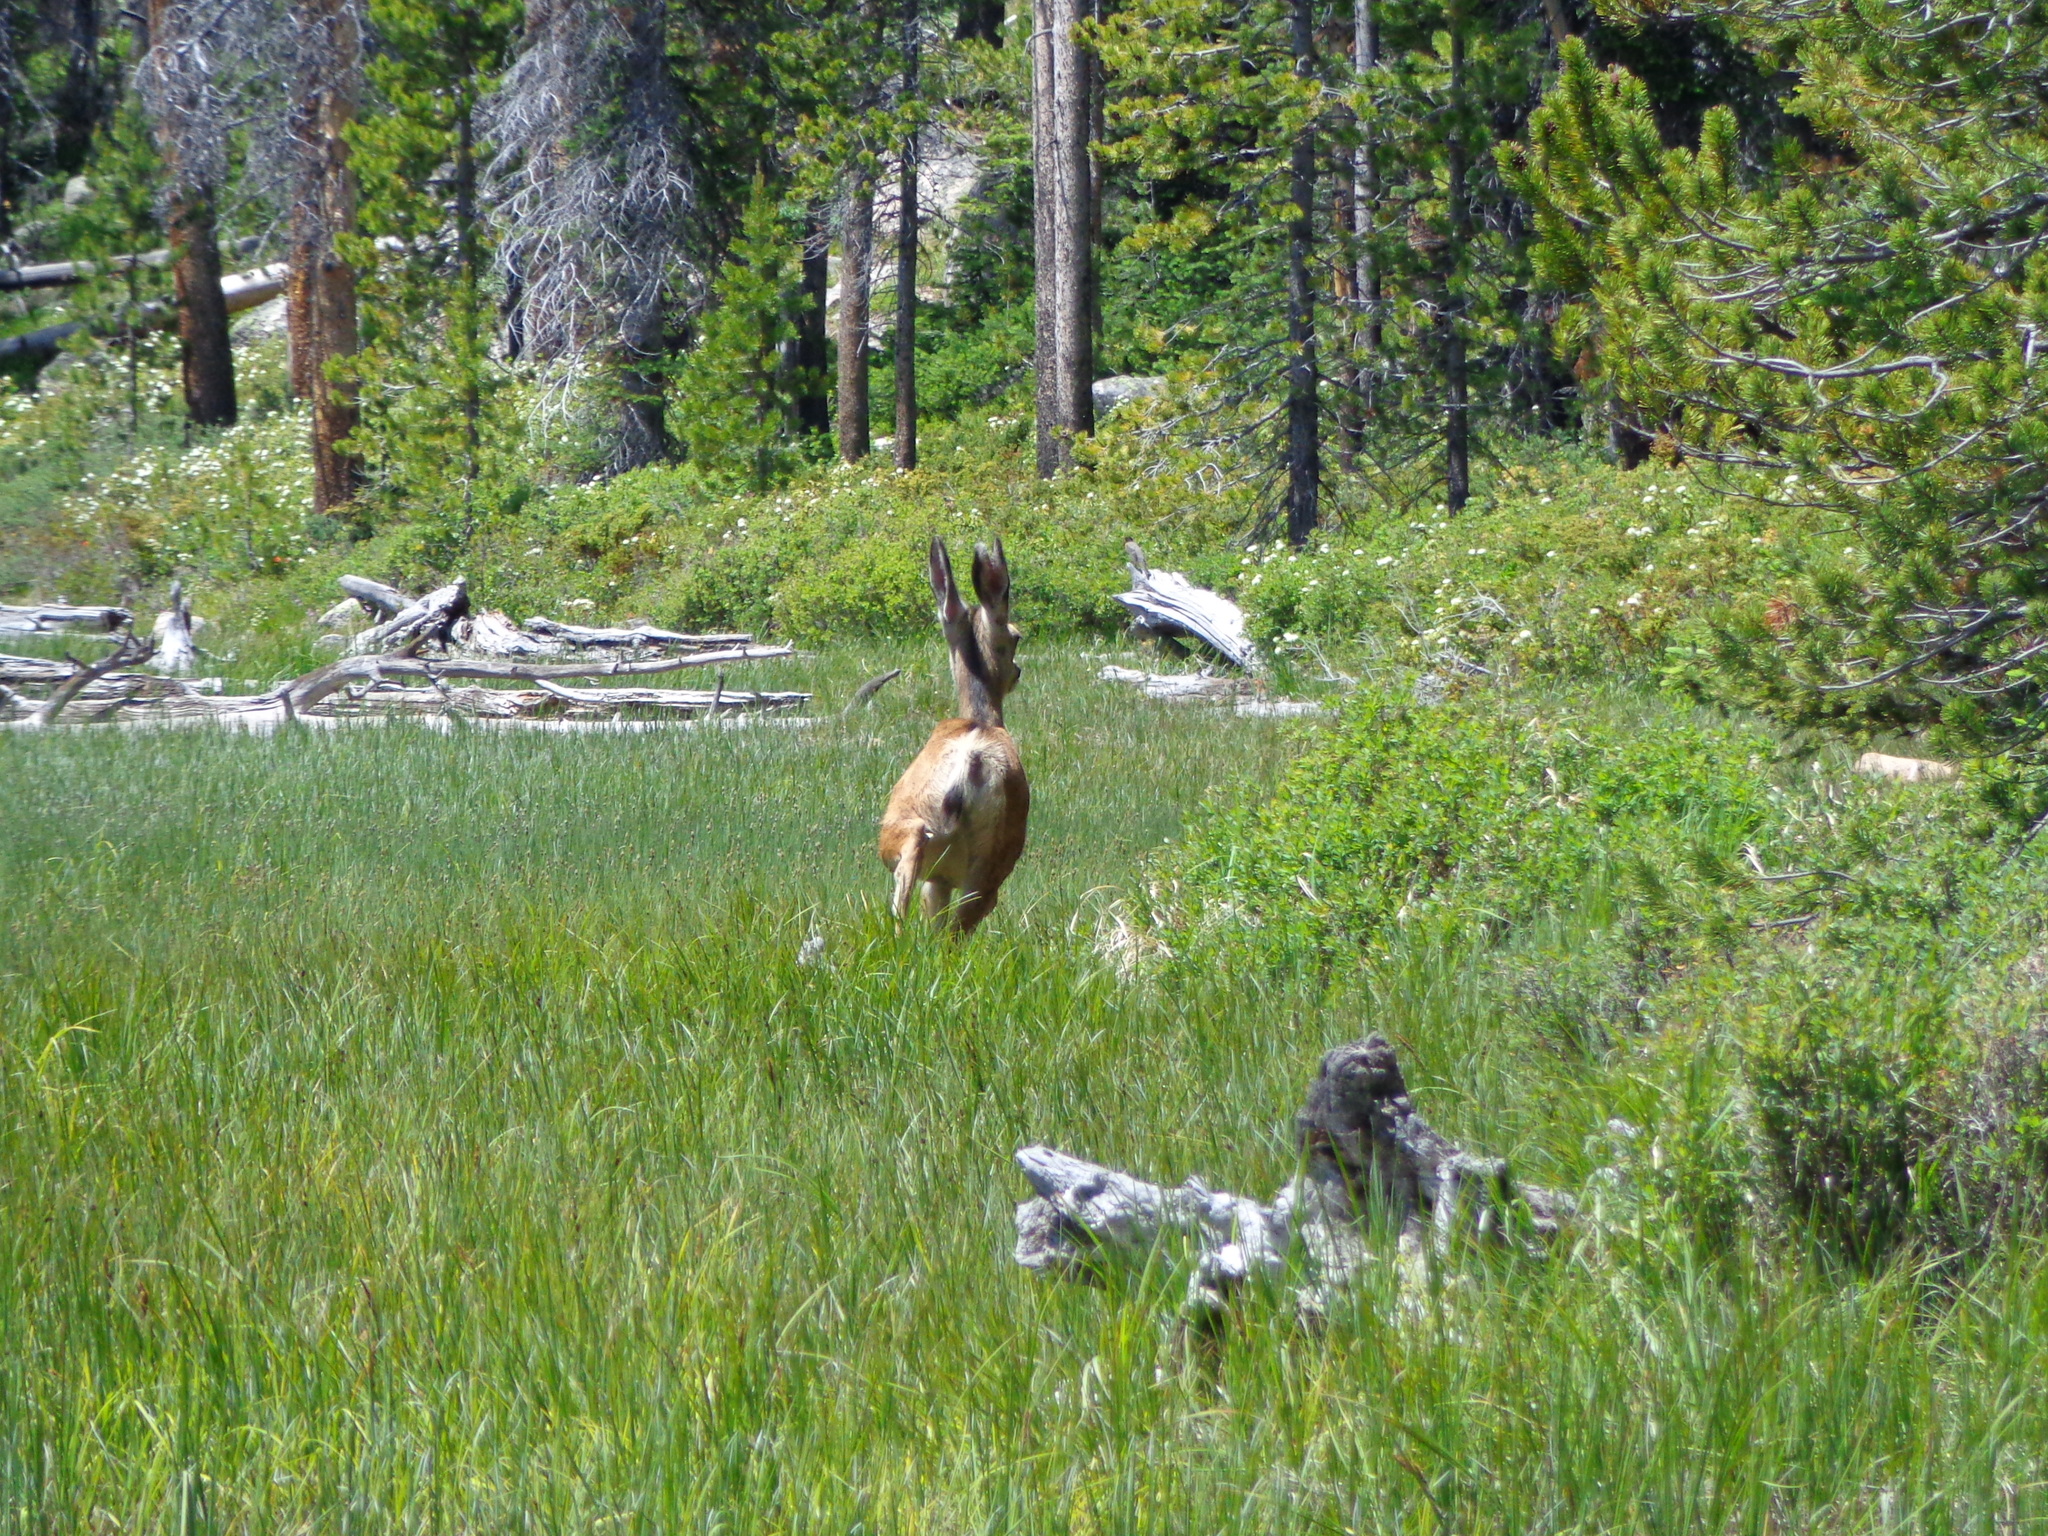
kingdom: Animalia
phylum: Chordata
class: Mammalia
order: Artiodactyla
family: Cervidae
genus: Odocoileus
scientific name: Odocoileus hemionus
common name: Mule deer
